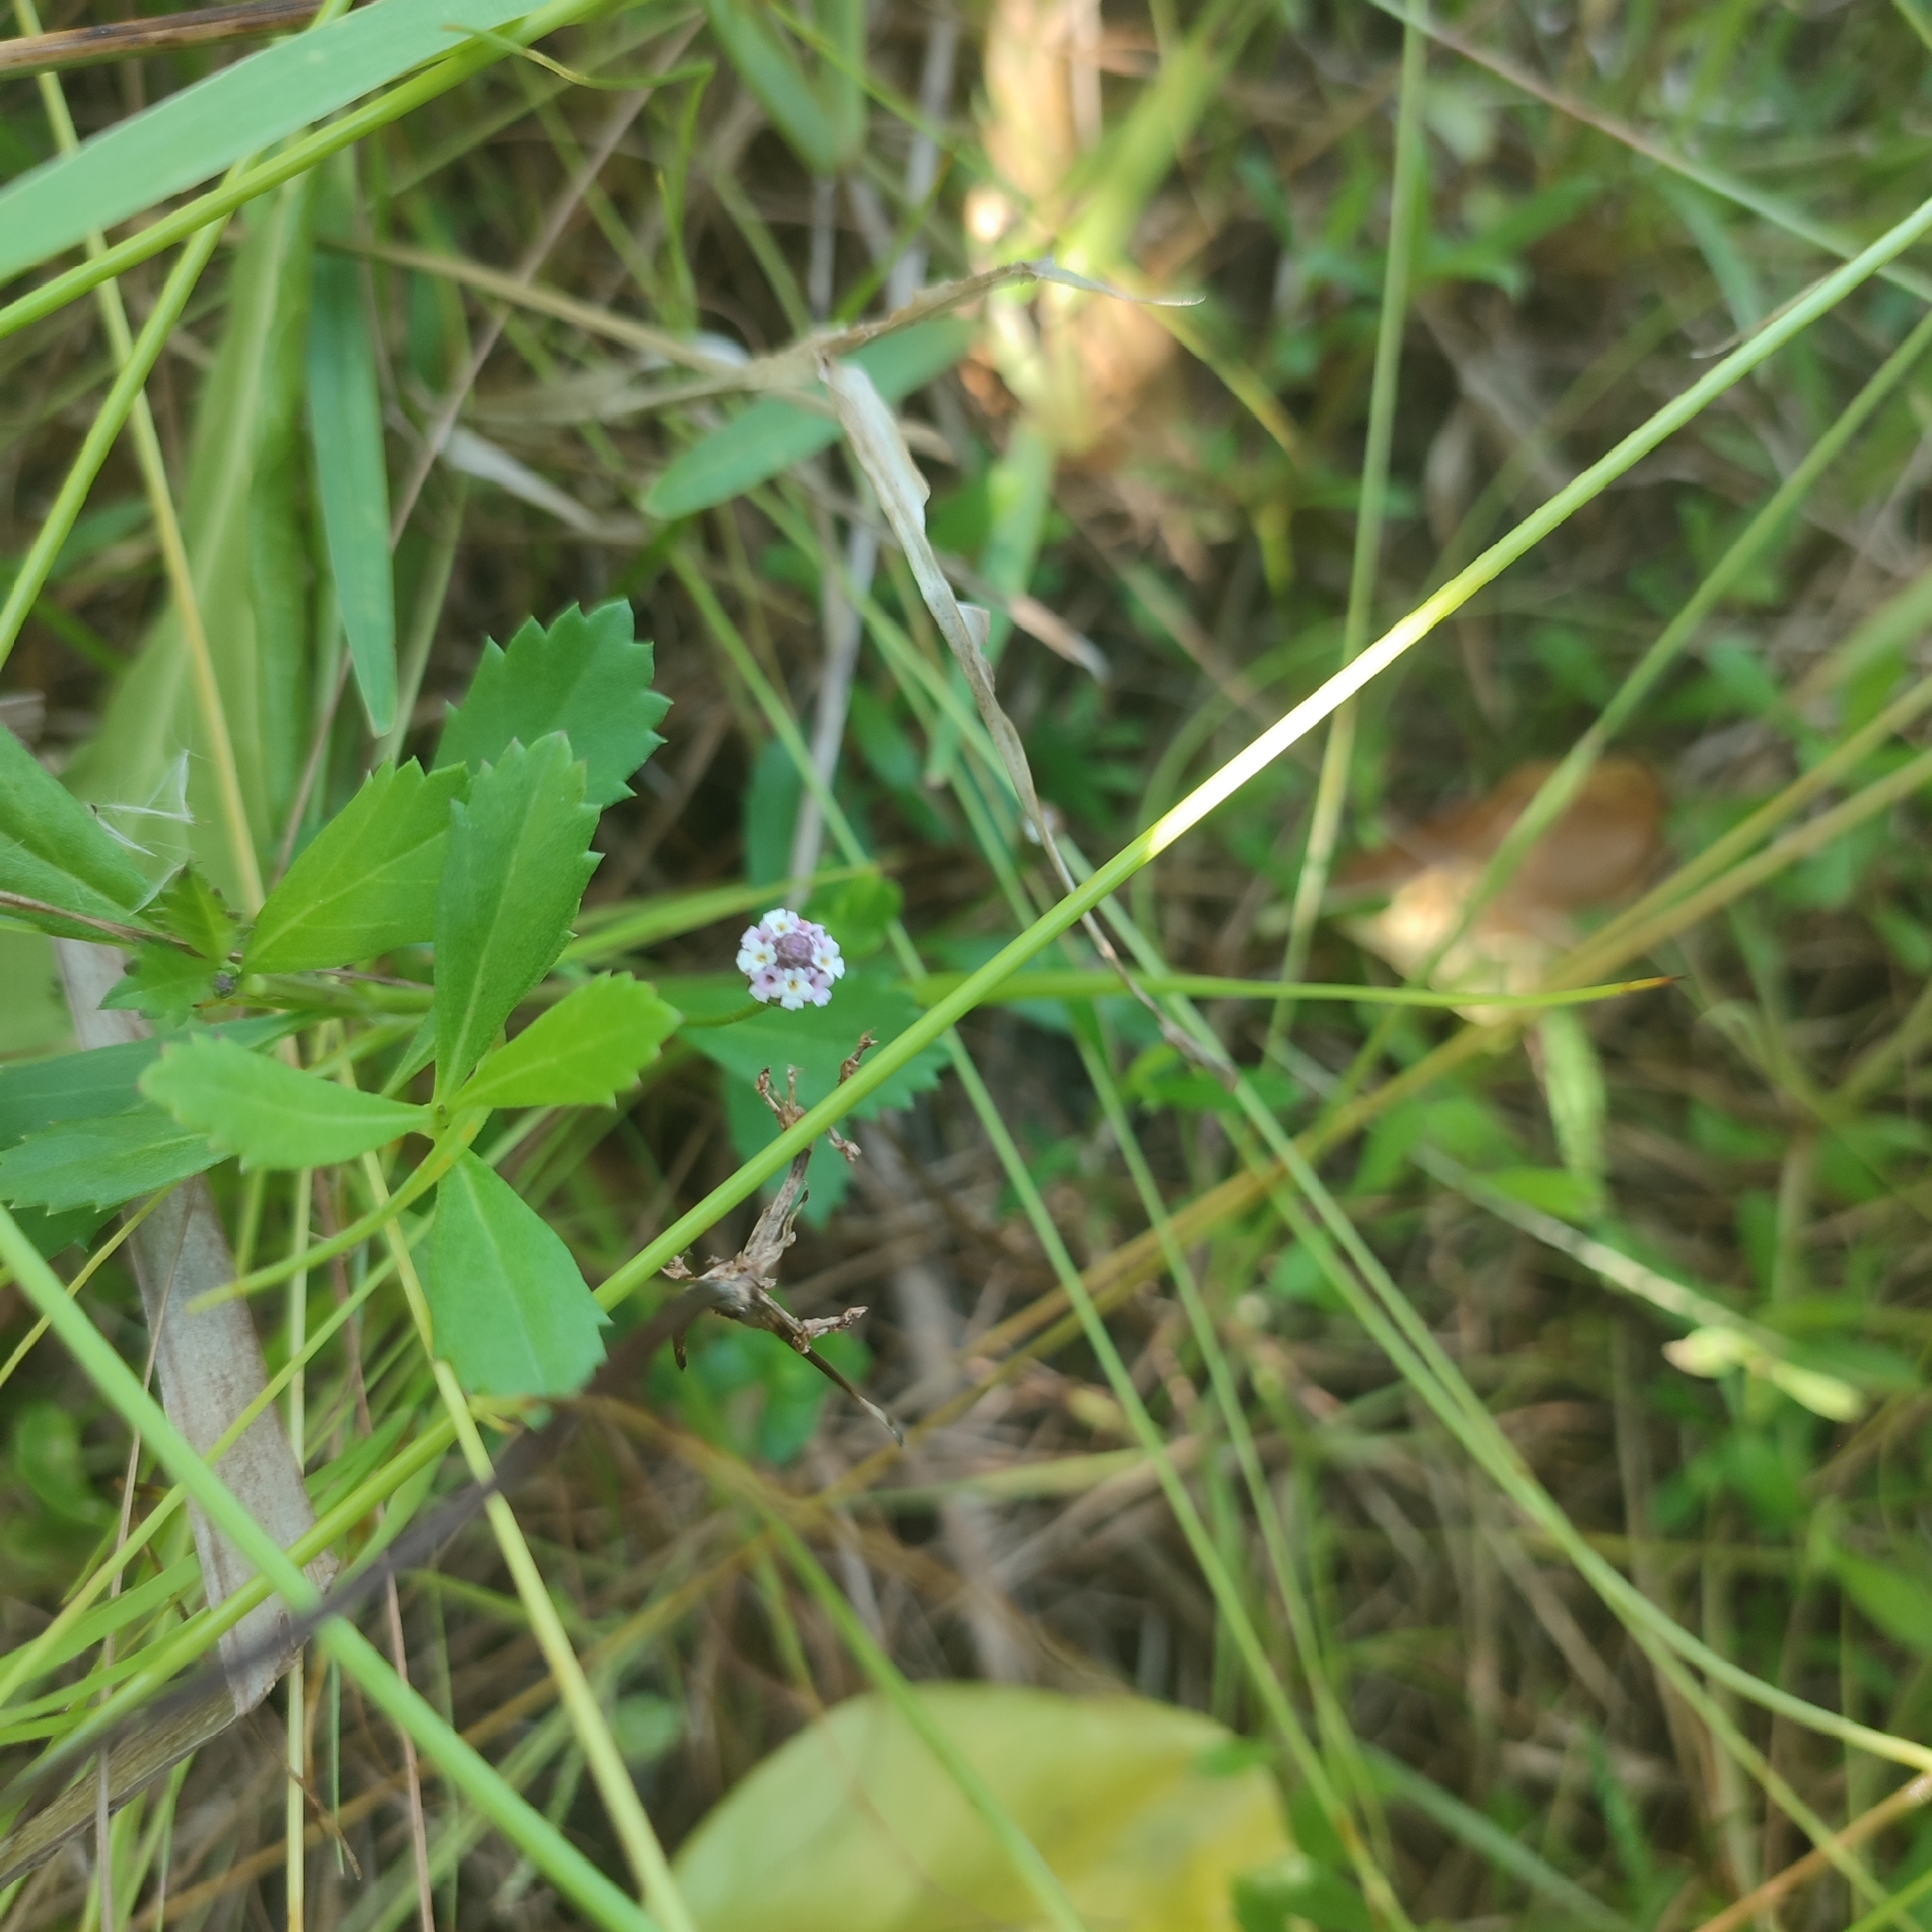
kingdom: Plantae
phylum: Tracheophyta
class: Magnoliopsida
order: Lamiales
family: Verbenaceae
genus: Phyla
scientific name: Phyla nodiflora
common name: Frogfruit
